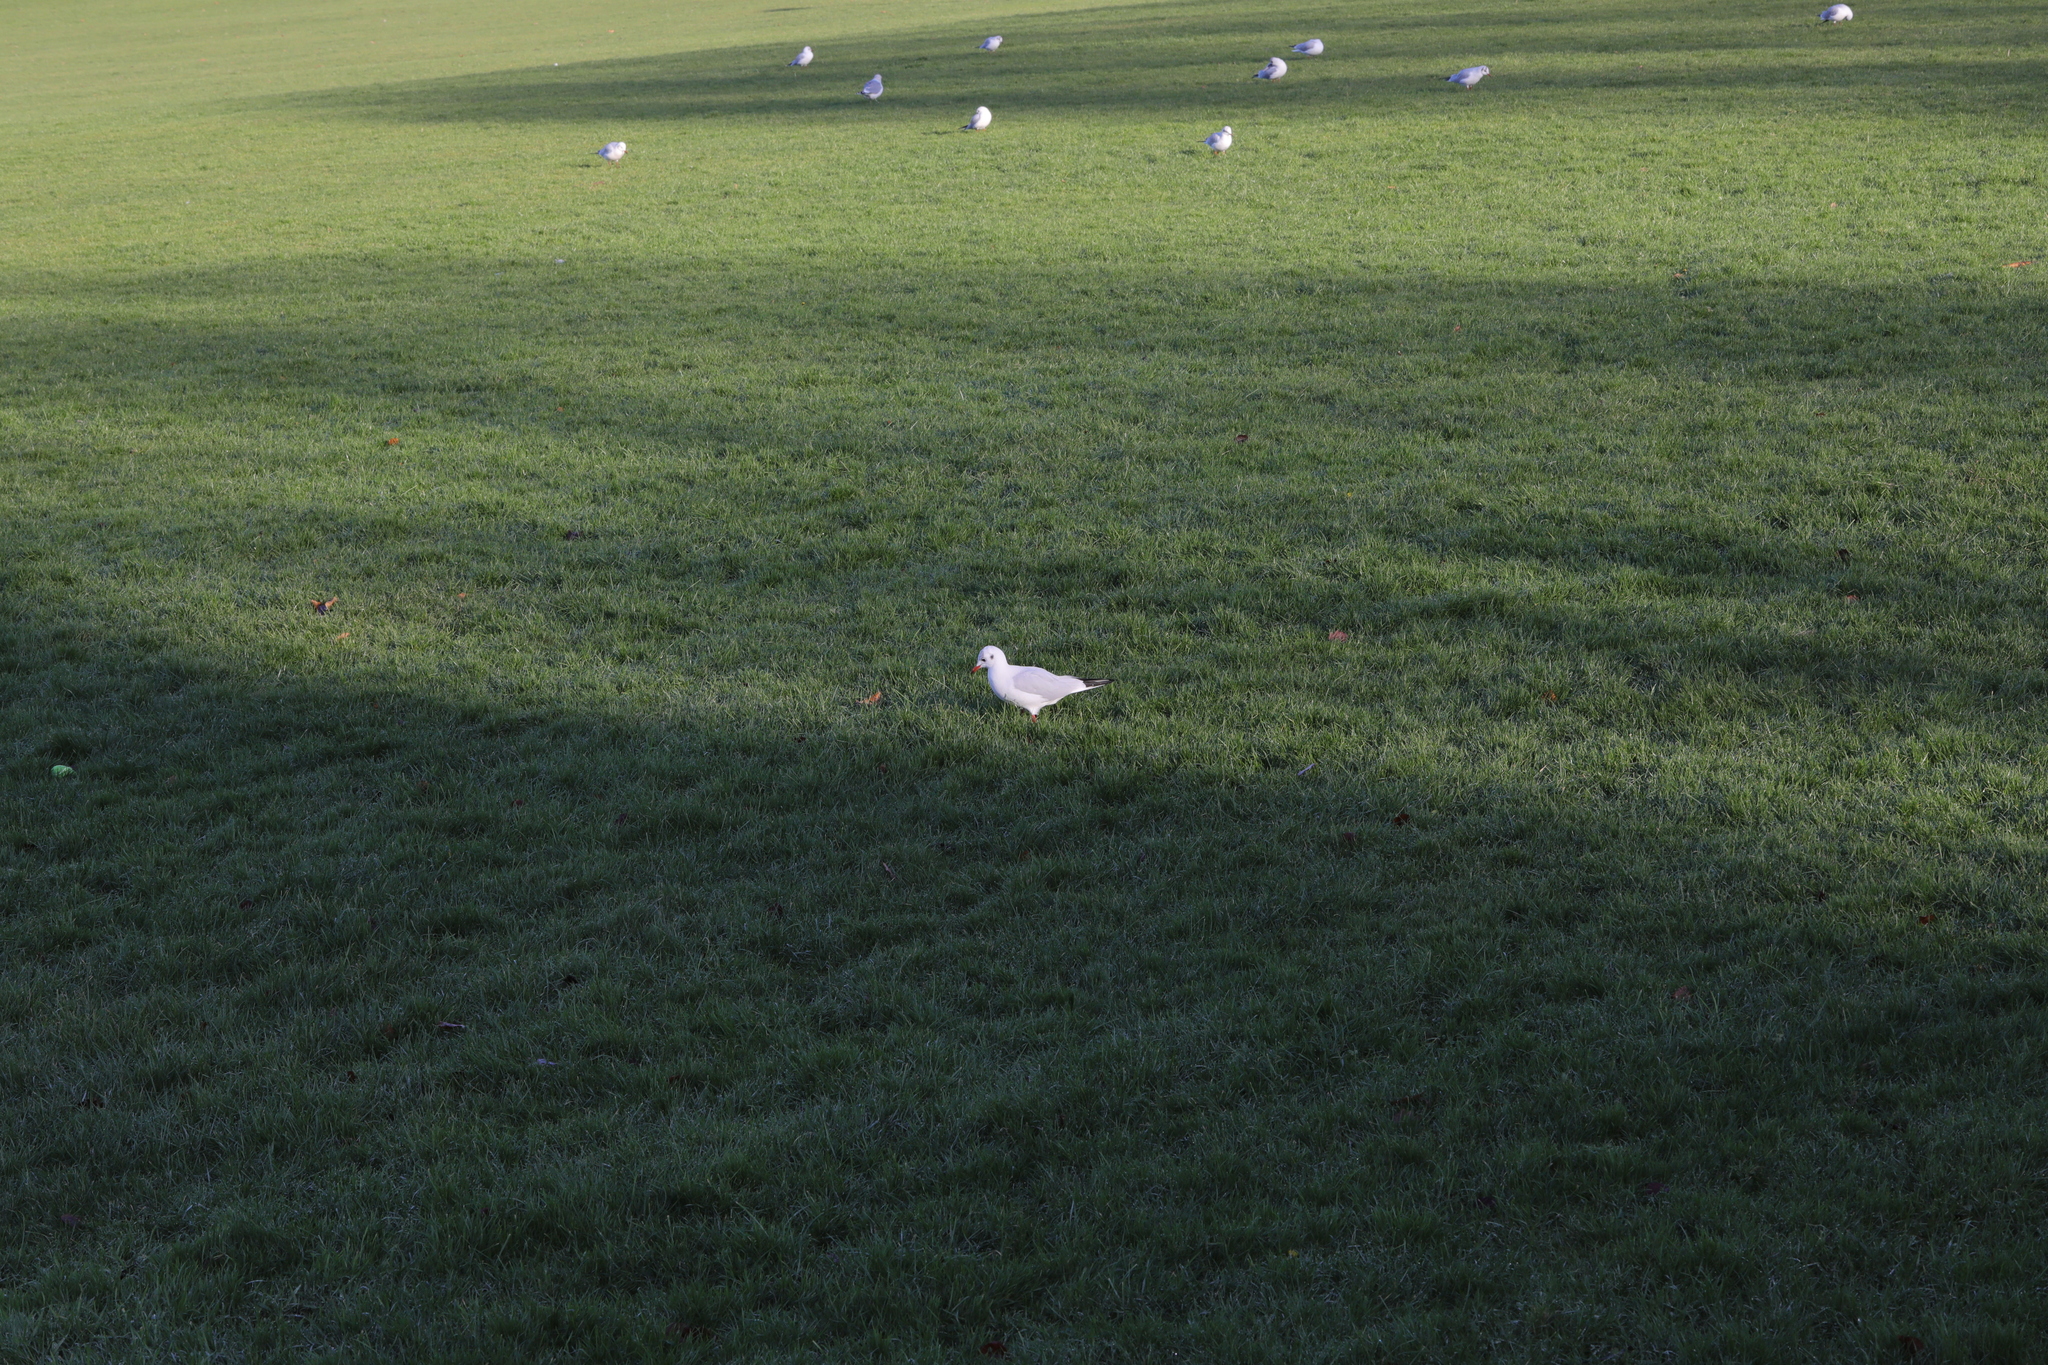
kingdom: Animalia
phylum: Chordata
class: Aves
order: Charadriiformes
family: Laridae
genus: Chroicocephalus
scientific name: Chroicocephalus ridibundus
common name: Black-headed gull
